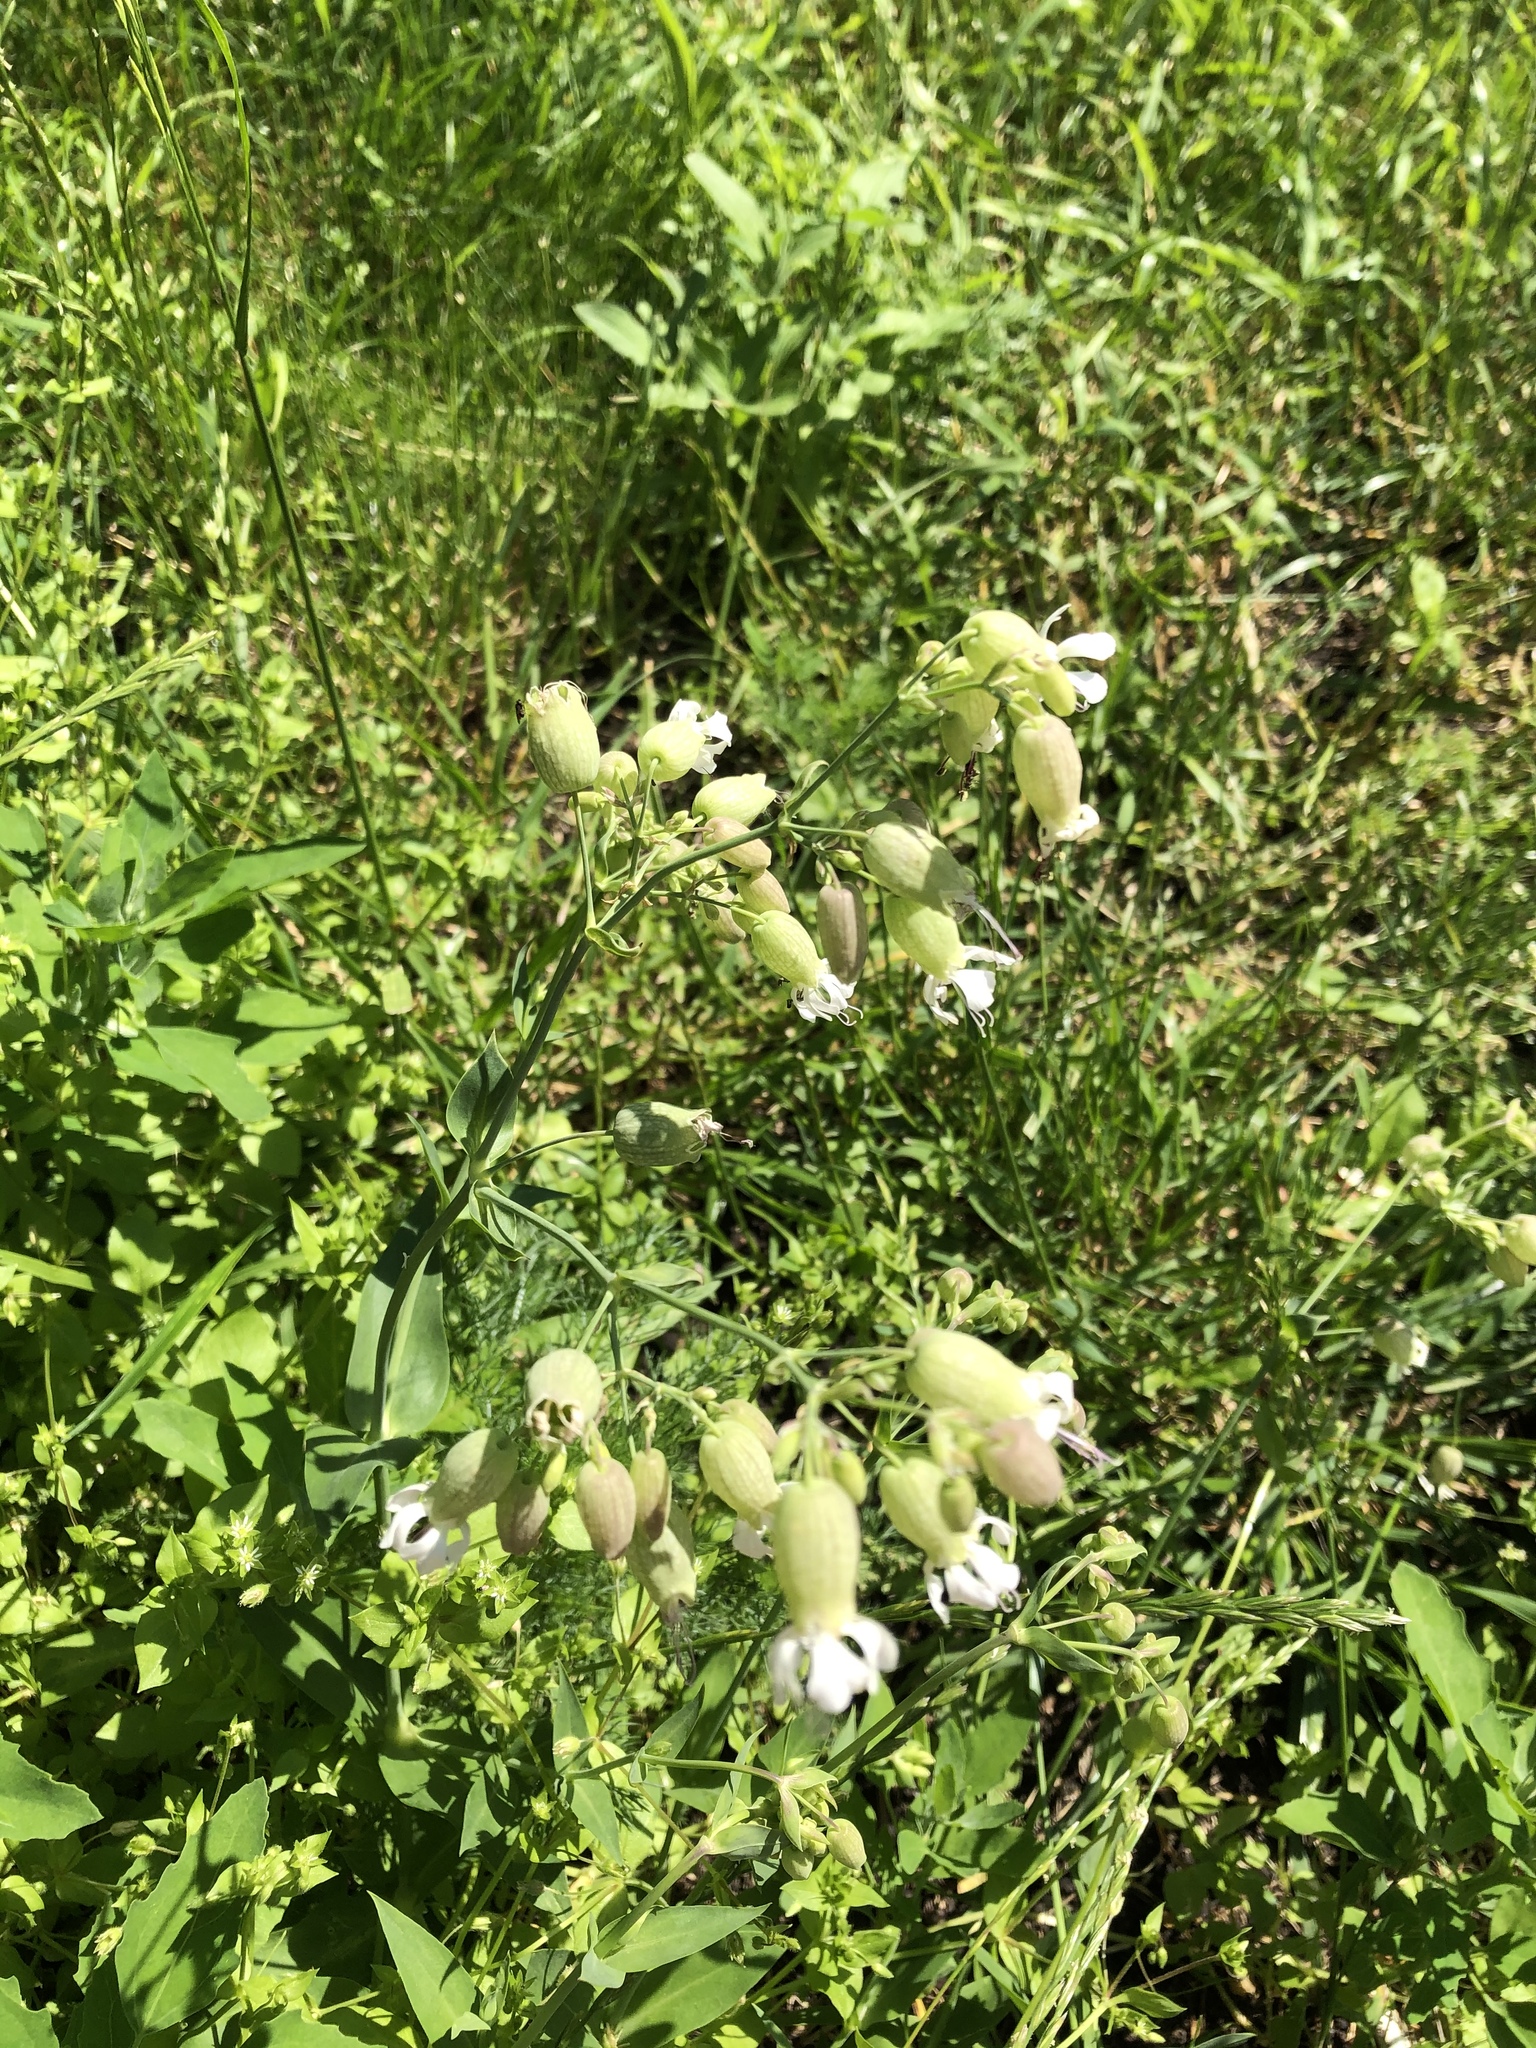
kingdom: Plantae
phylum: Tracheophyta
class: Magnoliopsida
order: Caryophyllales
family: Caryophyllaceae
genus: Silene
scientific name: Silene vulgaris
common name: Bladder campion
